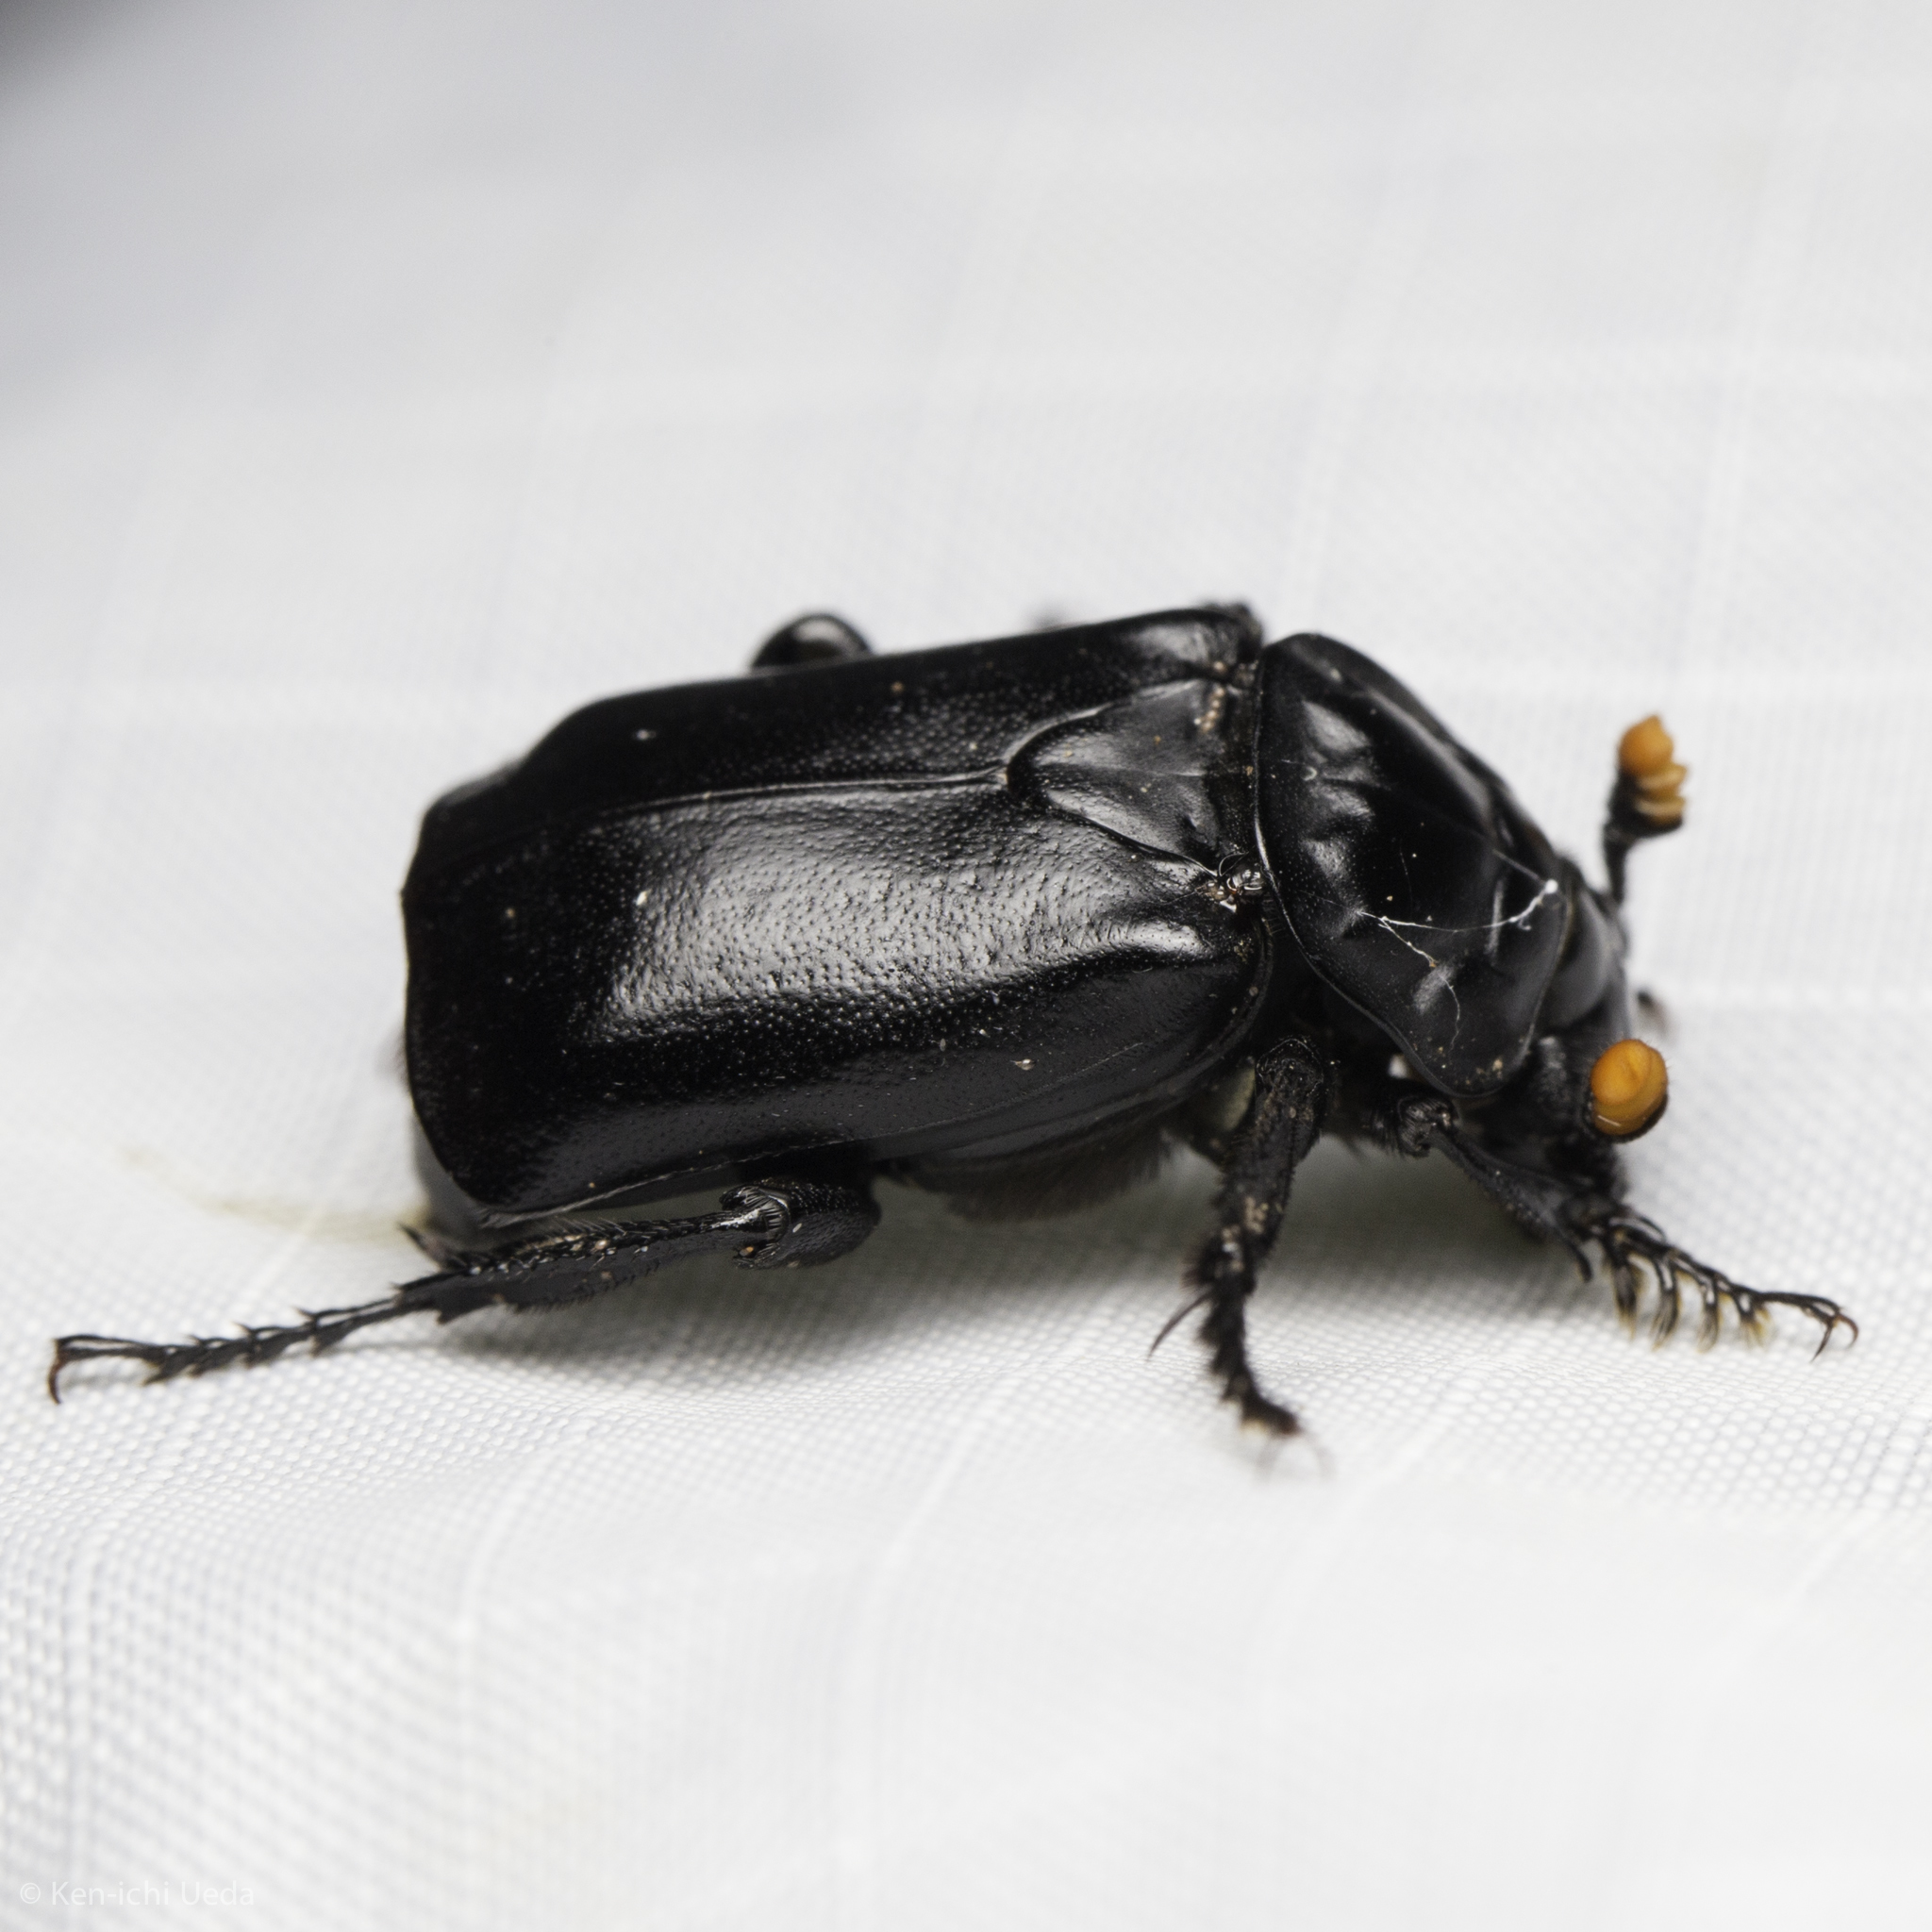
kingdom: Animalia
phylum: Arthropoda
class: Insecta
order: Coleoptera
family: Staphylinidae
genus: Nicrophorus
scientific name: Nicrophorus nigrita
